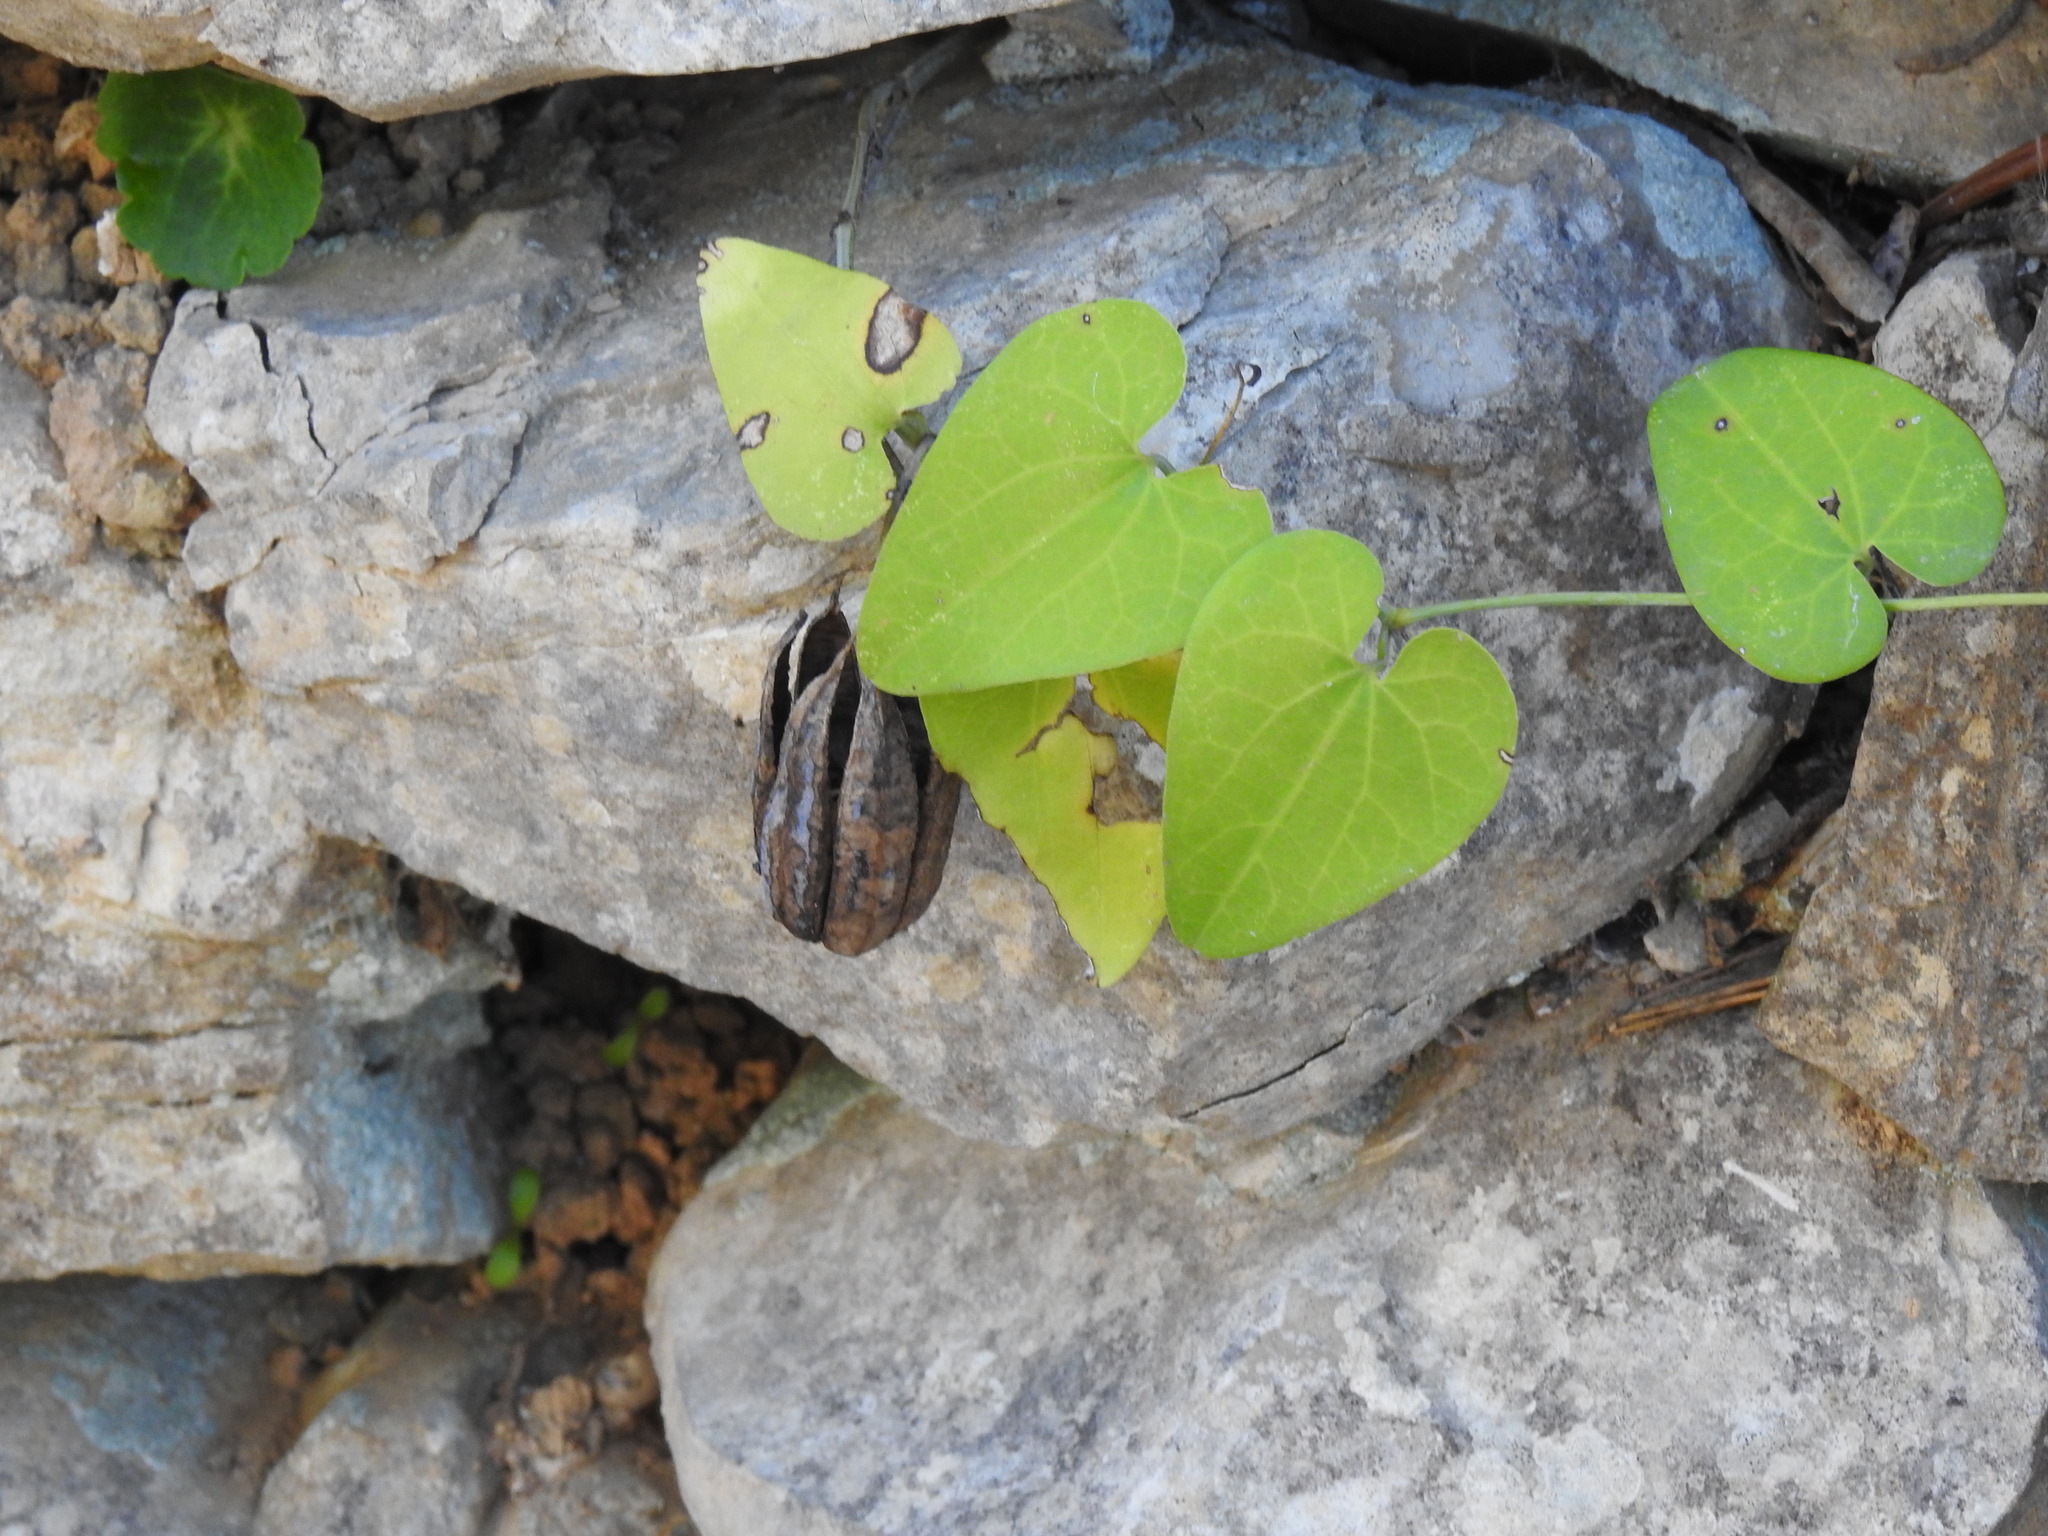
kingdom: Plantae
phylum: Tracheophyta
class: Magnoliopsida
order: Piperales
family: Aristolochiaceae
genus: Aristolochia
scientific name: Aristolochia baetica
